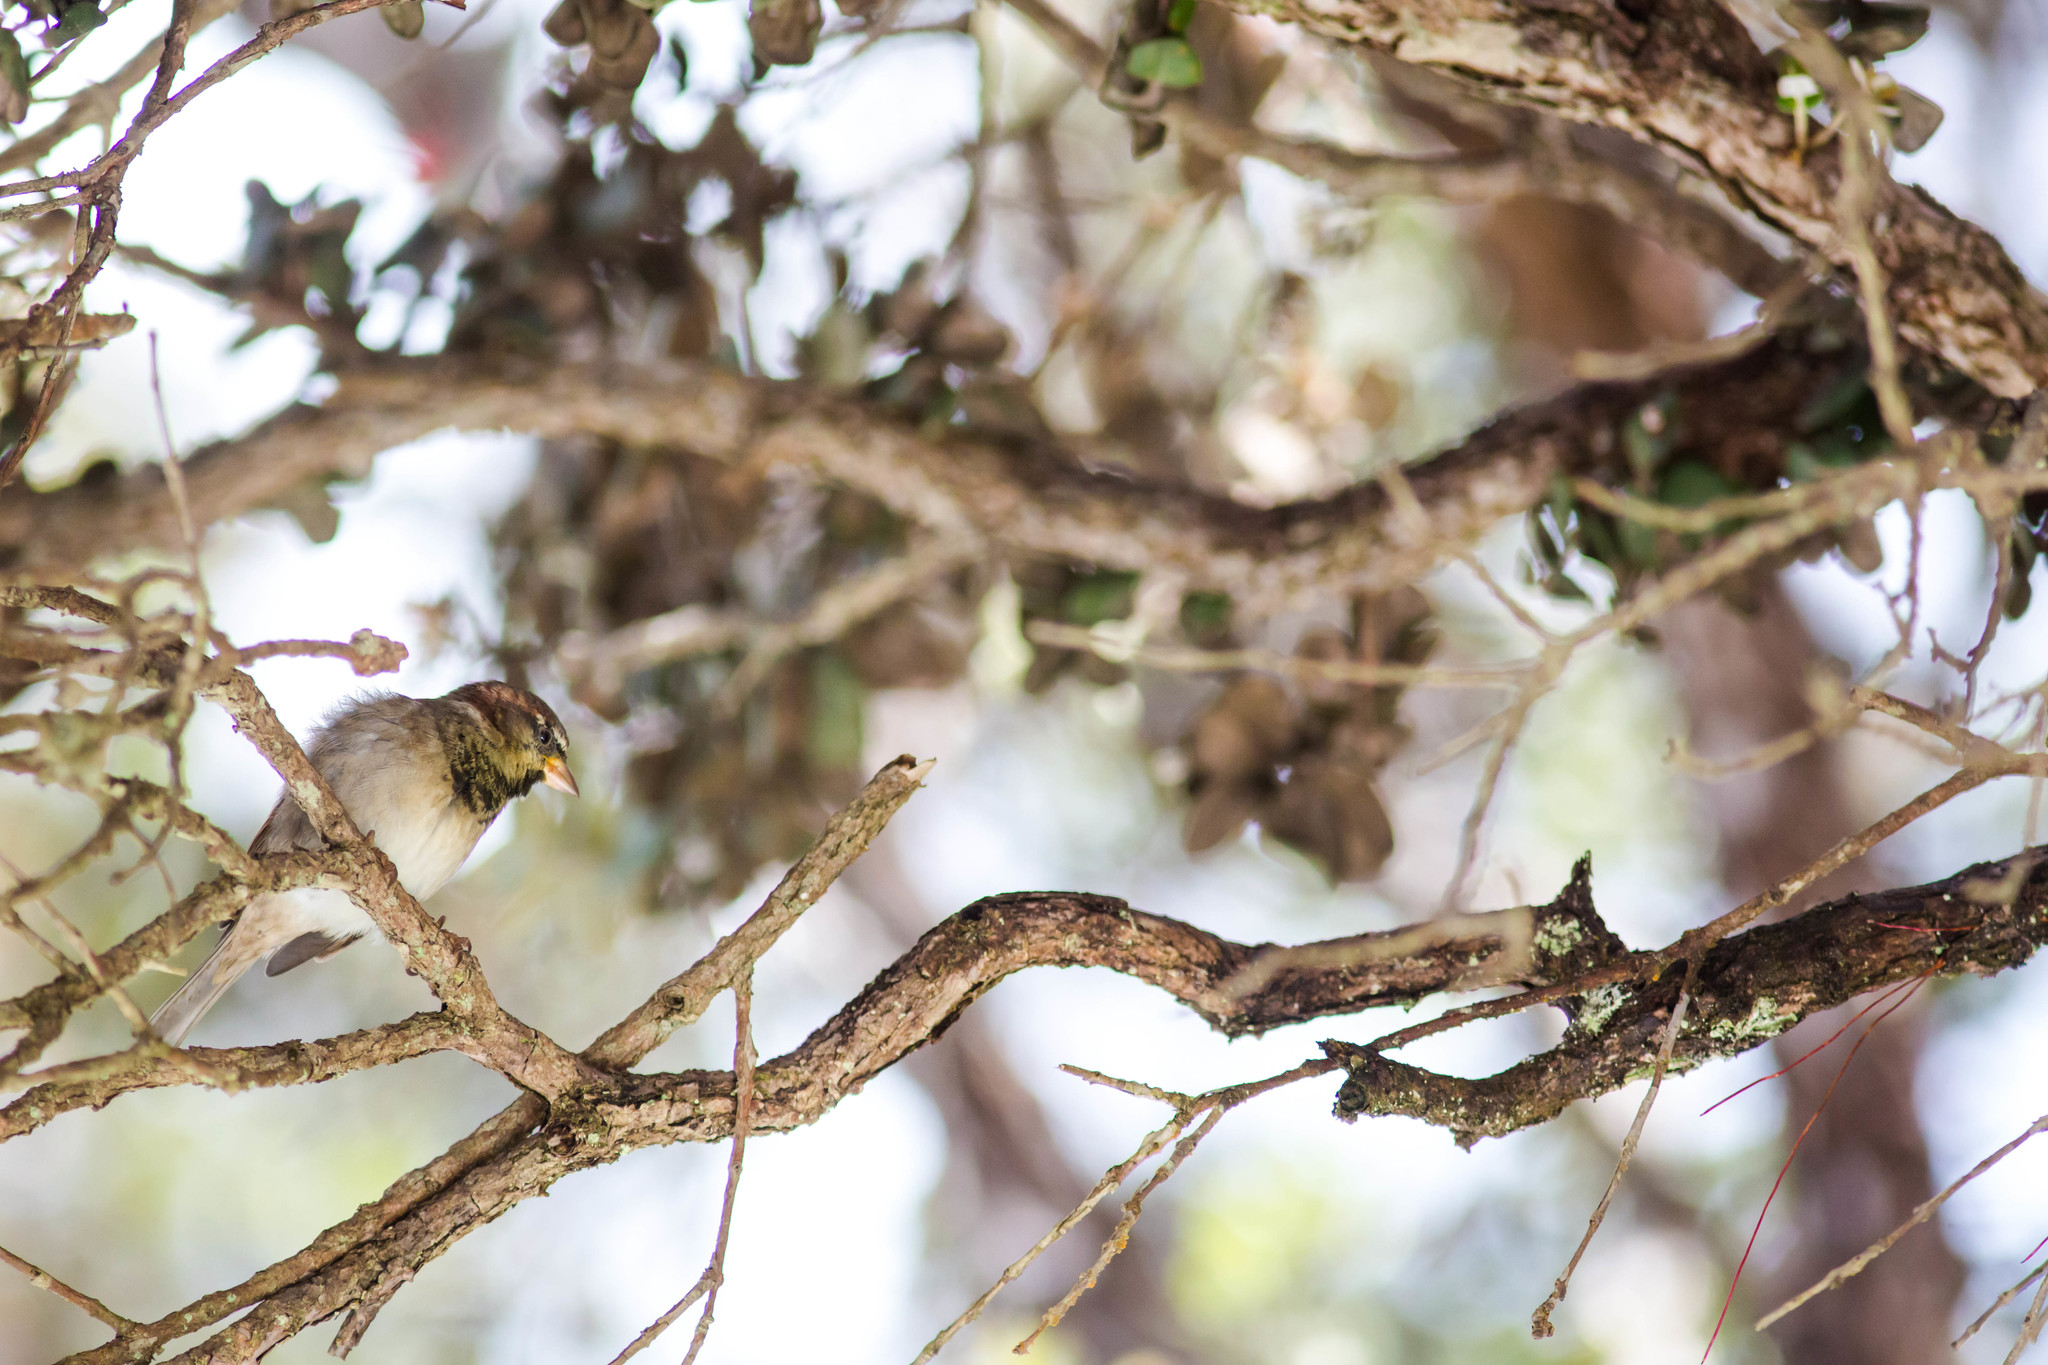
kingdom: Animalia
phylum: Chordata
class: Aves
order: Passeriformes
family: Passeridae
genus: Passer
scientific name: Passer domesticus
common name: House sparrow
